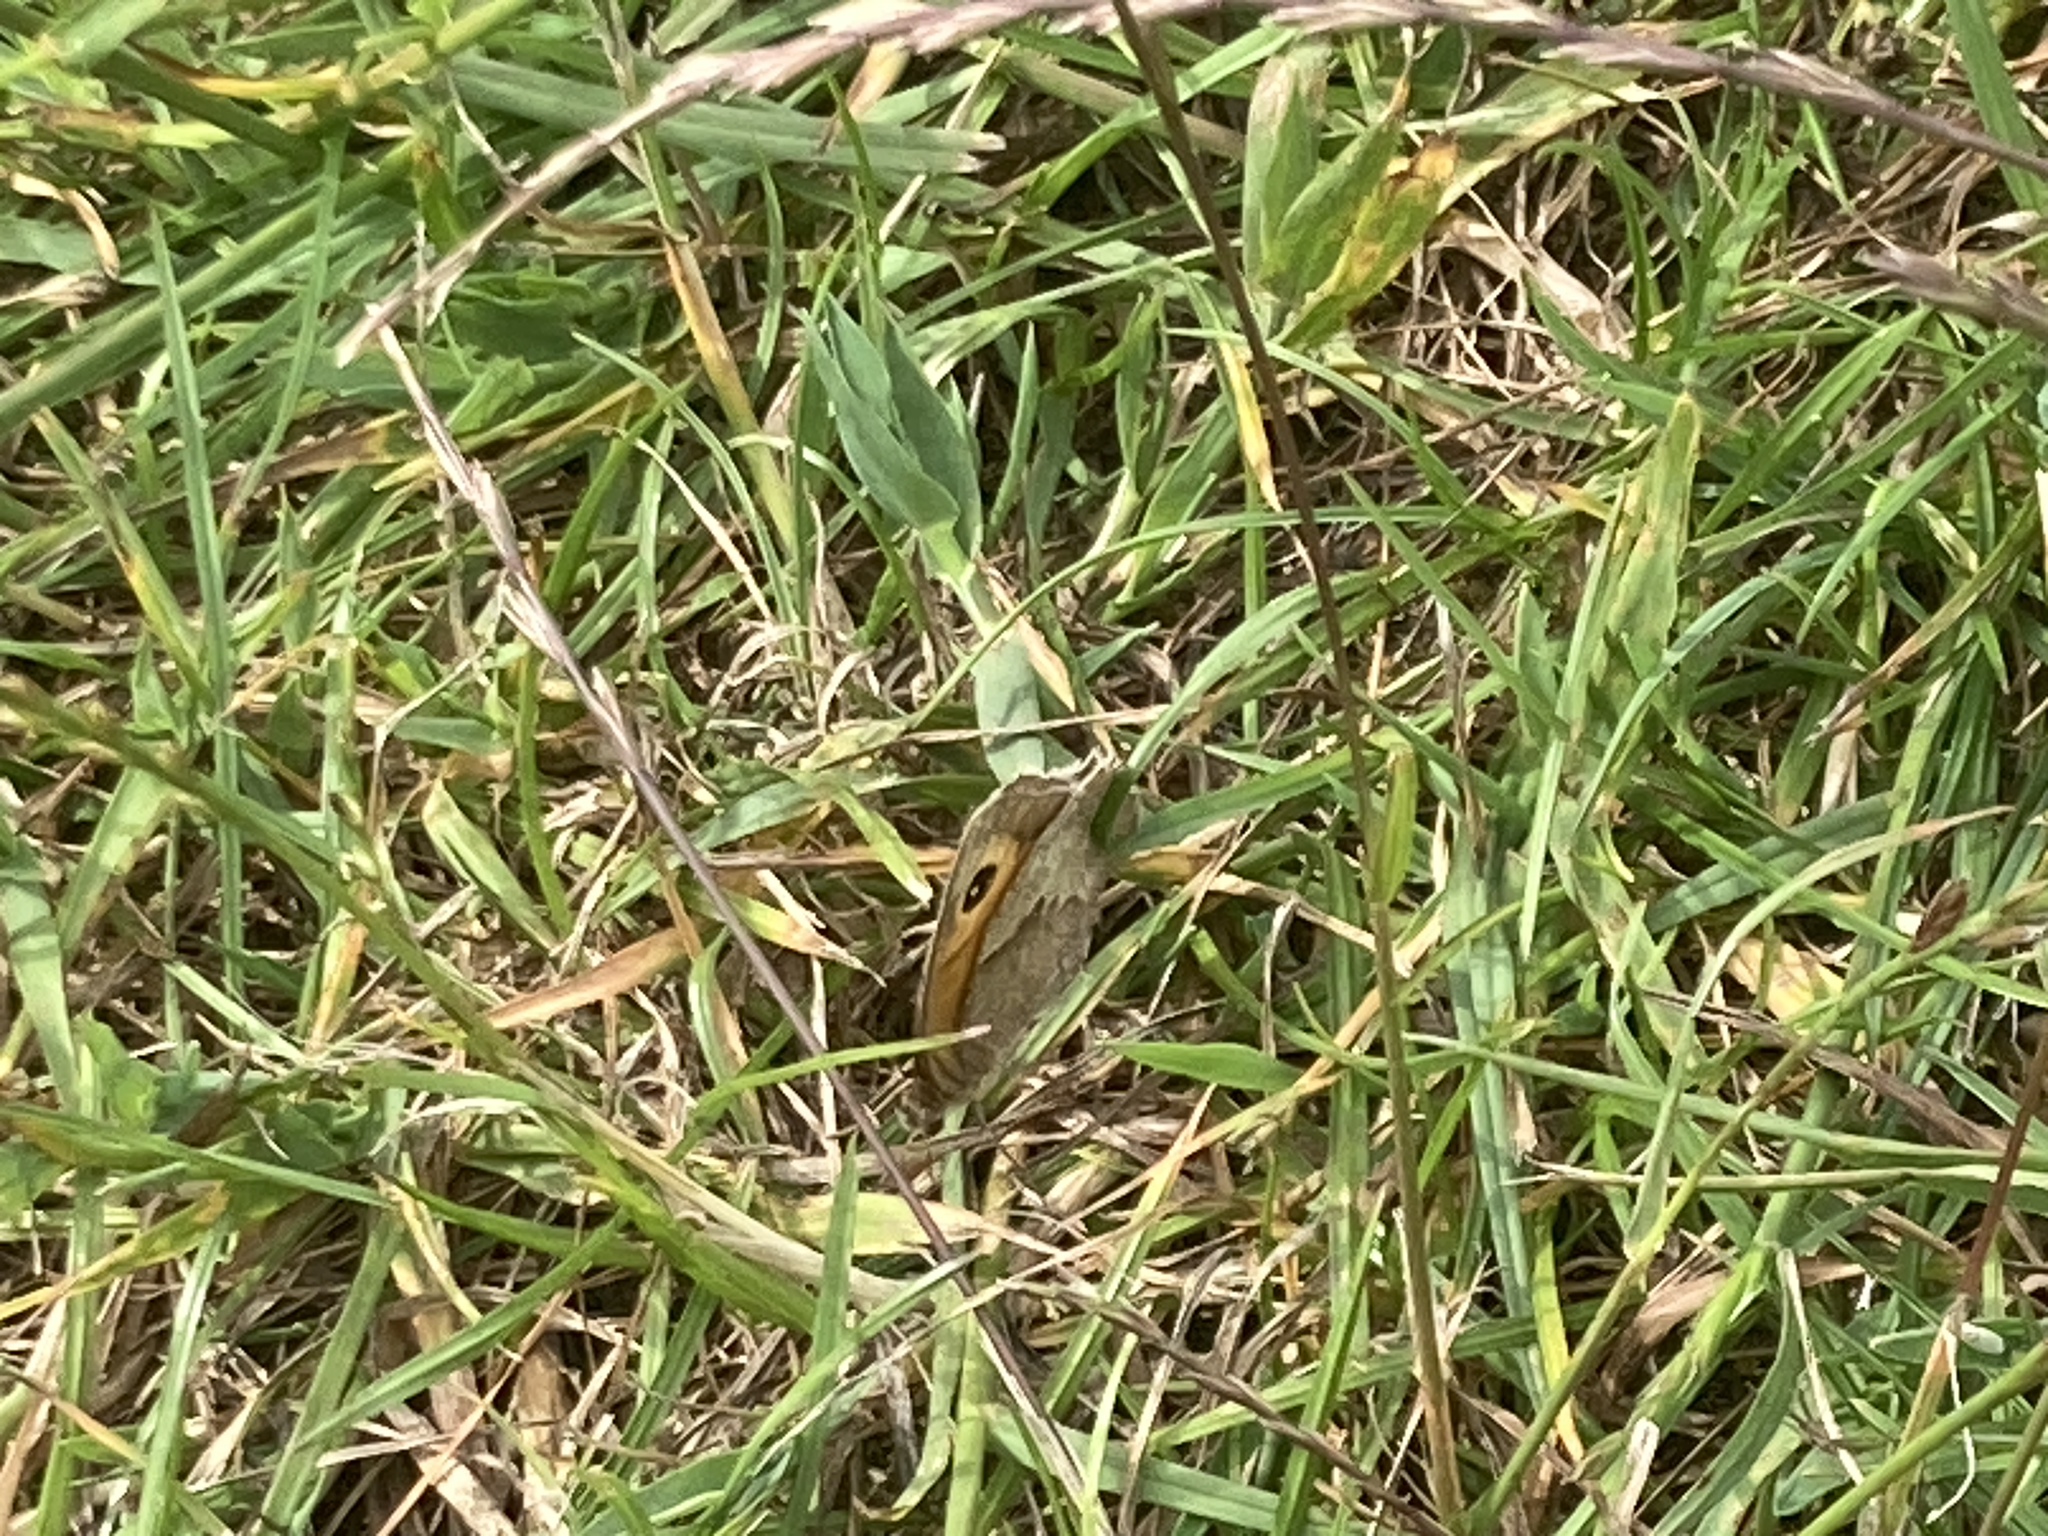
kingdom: Animalia
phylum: Arthropoda
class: Insecta
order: Lepidoptera
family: Nymphalidae
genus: Maniola
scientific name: Maniola jurtina
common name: Meadow brown
